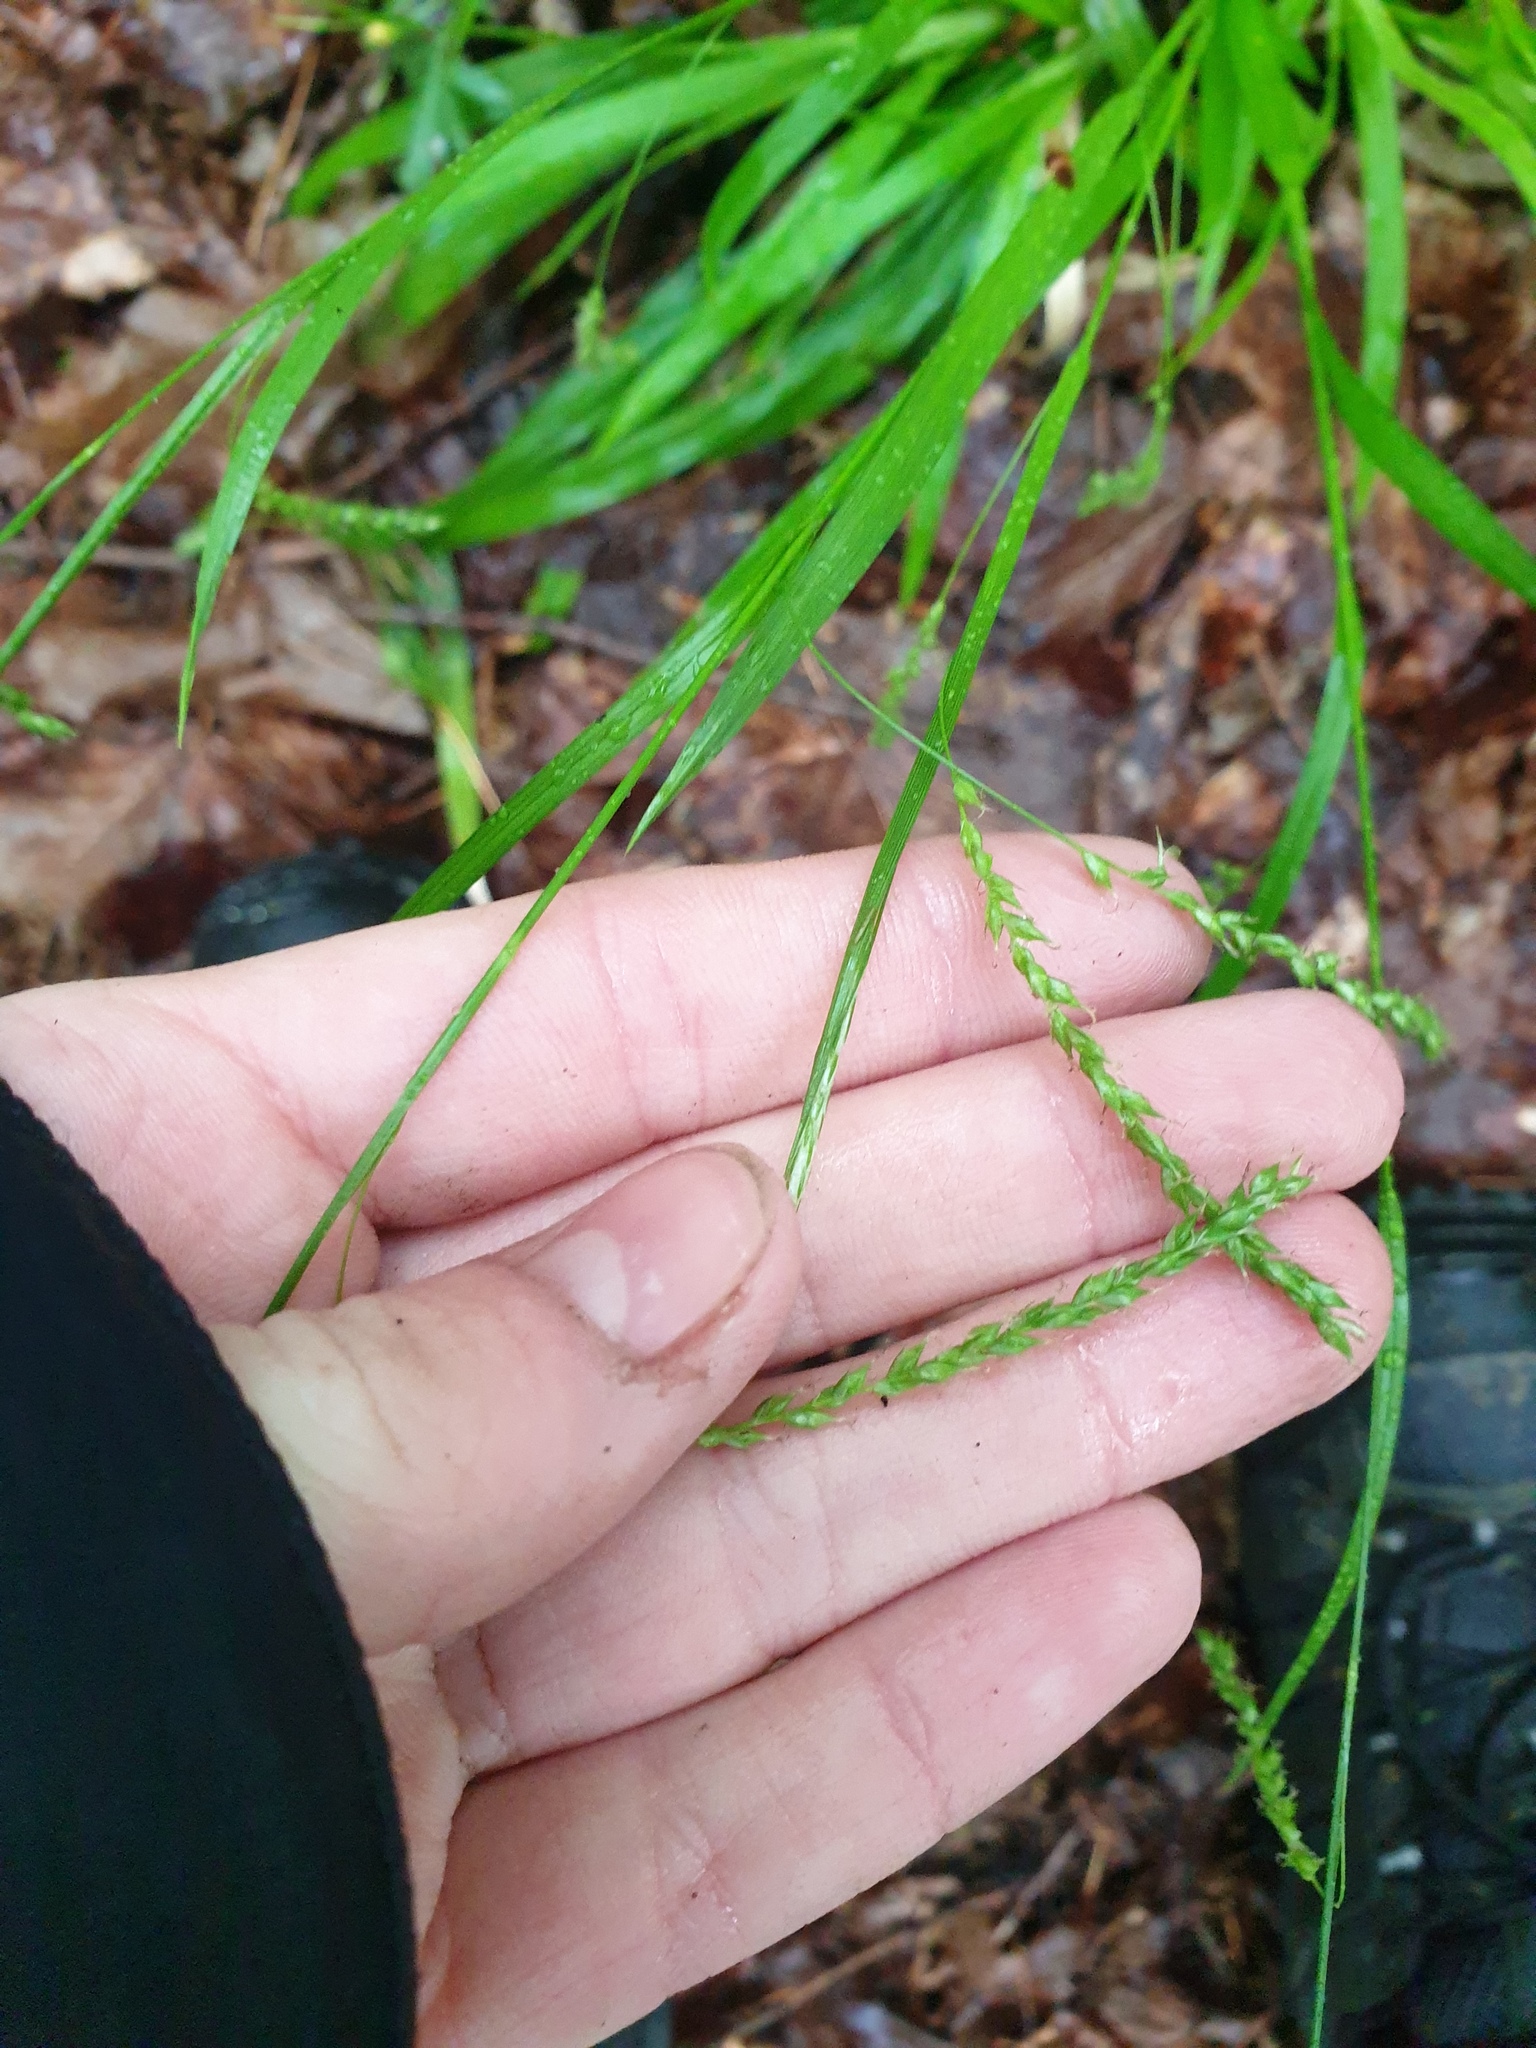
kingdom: Plantae
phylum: Tracheophyta
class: Liliopsida
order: Poales
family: Cyperaceae
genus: Carex
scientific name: Carex arctata
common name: Black sedge
